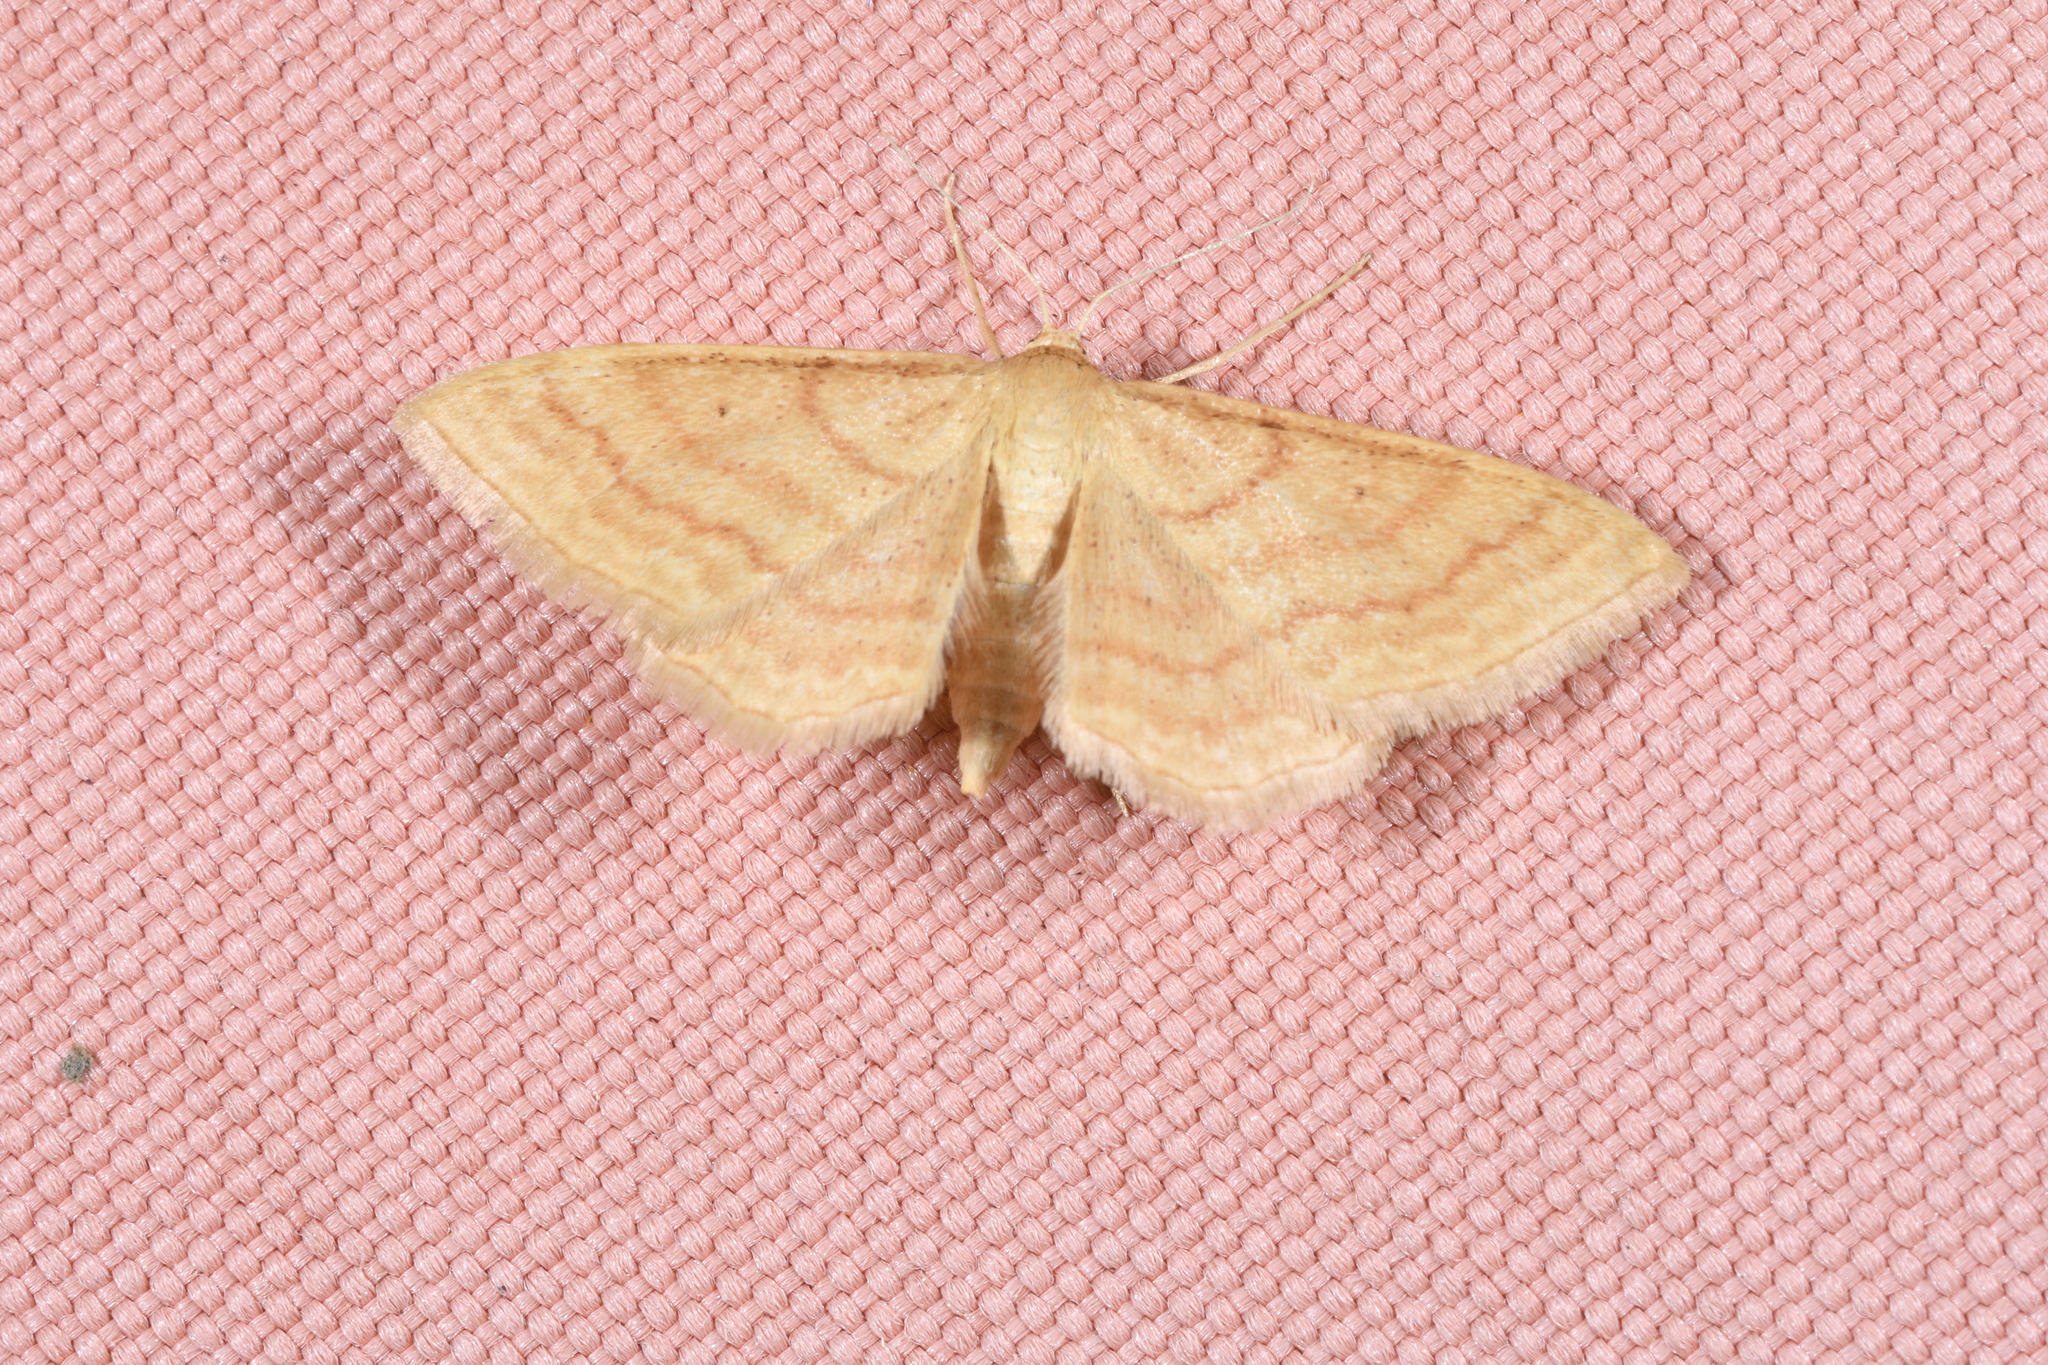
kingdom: Animalia
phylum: Arthropoda
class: Insecta
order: Lepidoptera
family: Geometridae
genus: Idaea
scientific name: Idaea rufaria
